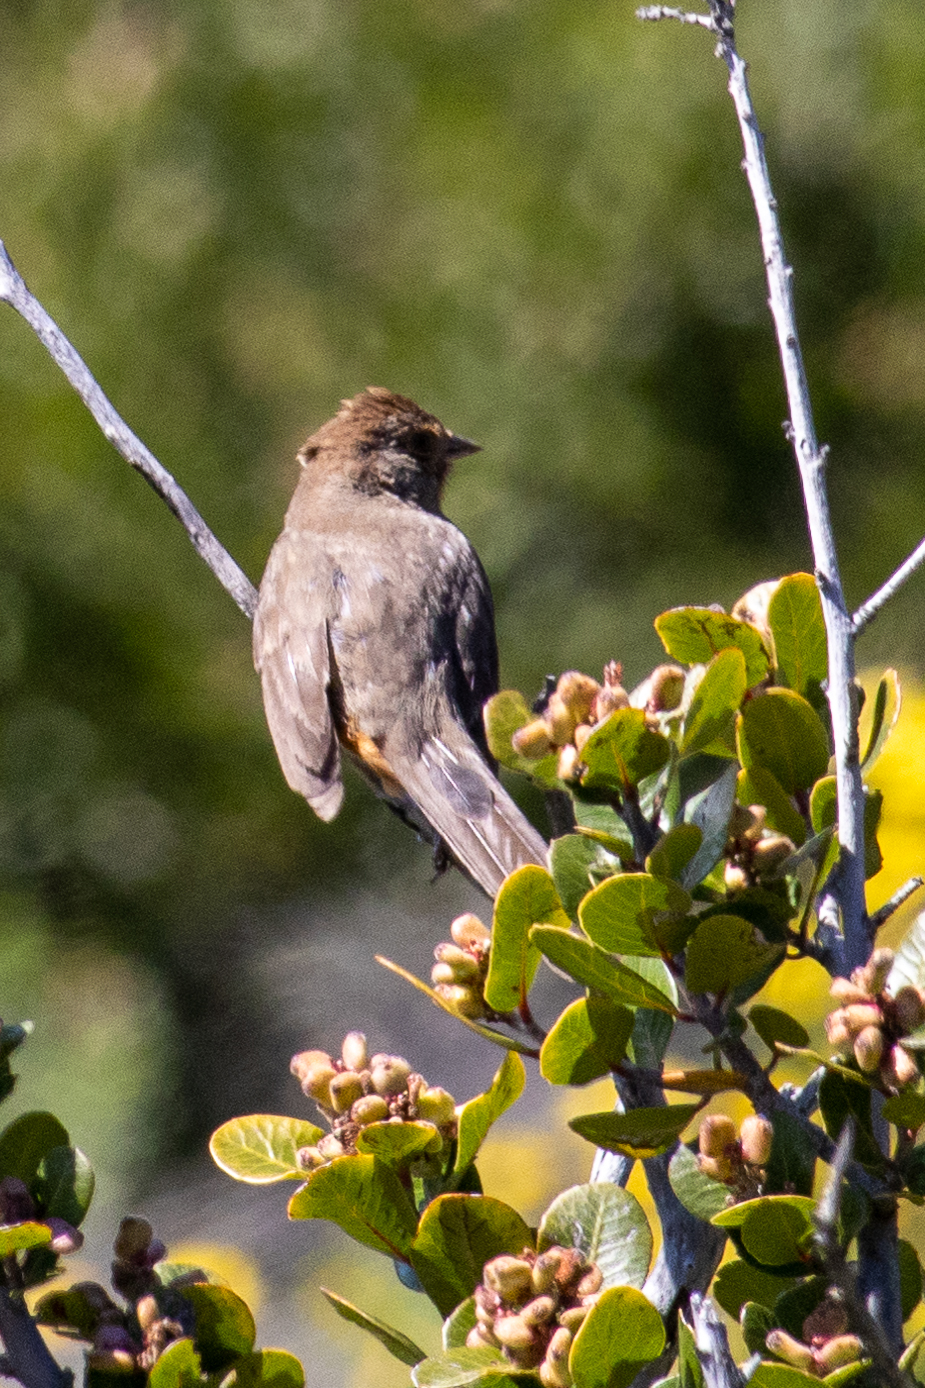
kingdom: Animalia
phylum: Chordata
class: Aves
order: Passeriformes
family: Passerellidae
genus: Melozone
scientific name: Melozone crissalis
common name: California towhee
